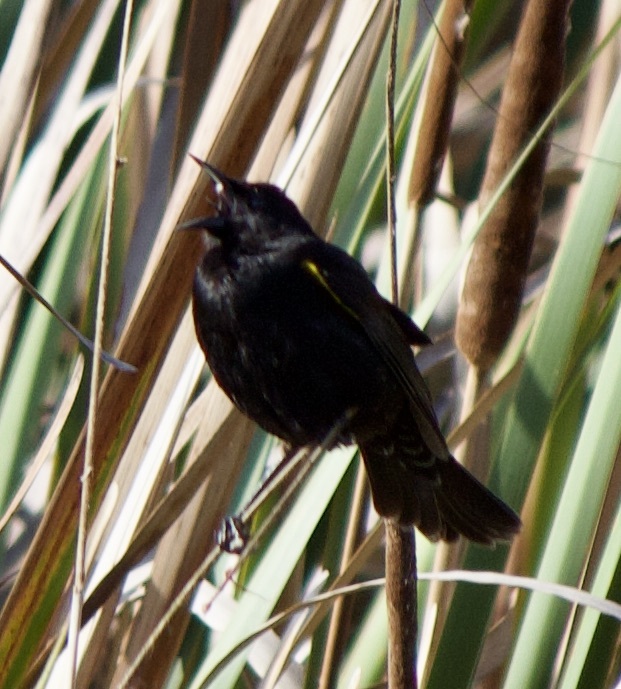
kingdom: Animalia
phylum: Chordata
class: Aves
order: Passeriformes
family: Icteridae
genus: Agelasticus
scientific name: Agelasticus thilius
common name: Yellow-winged blackbird
